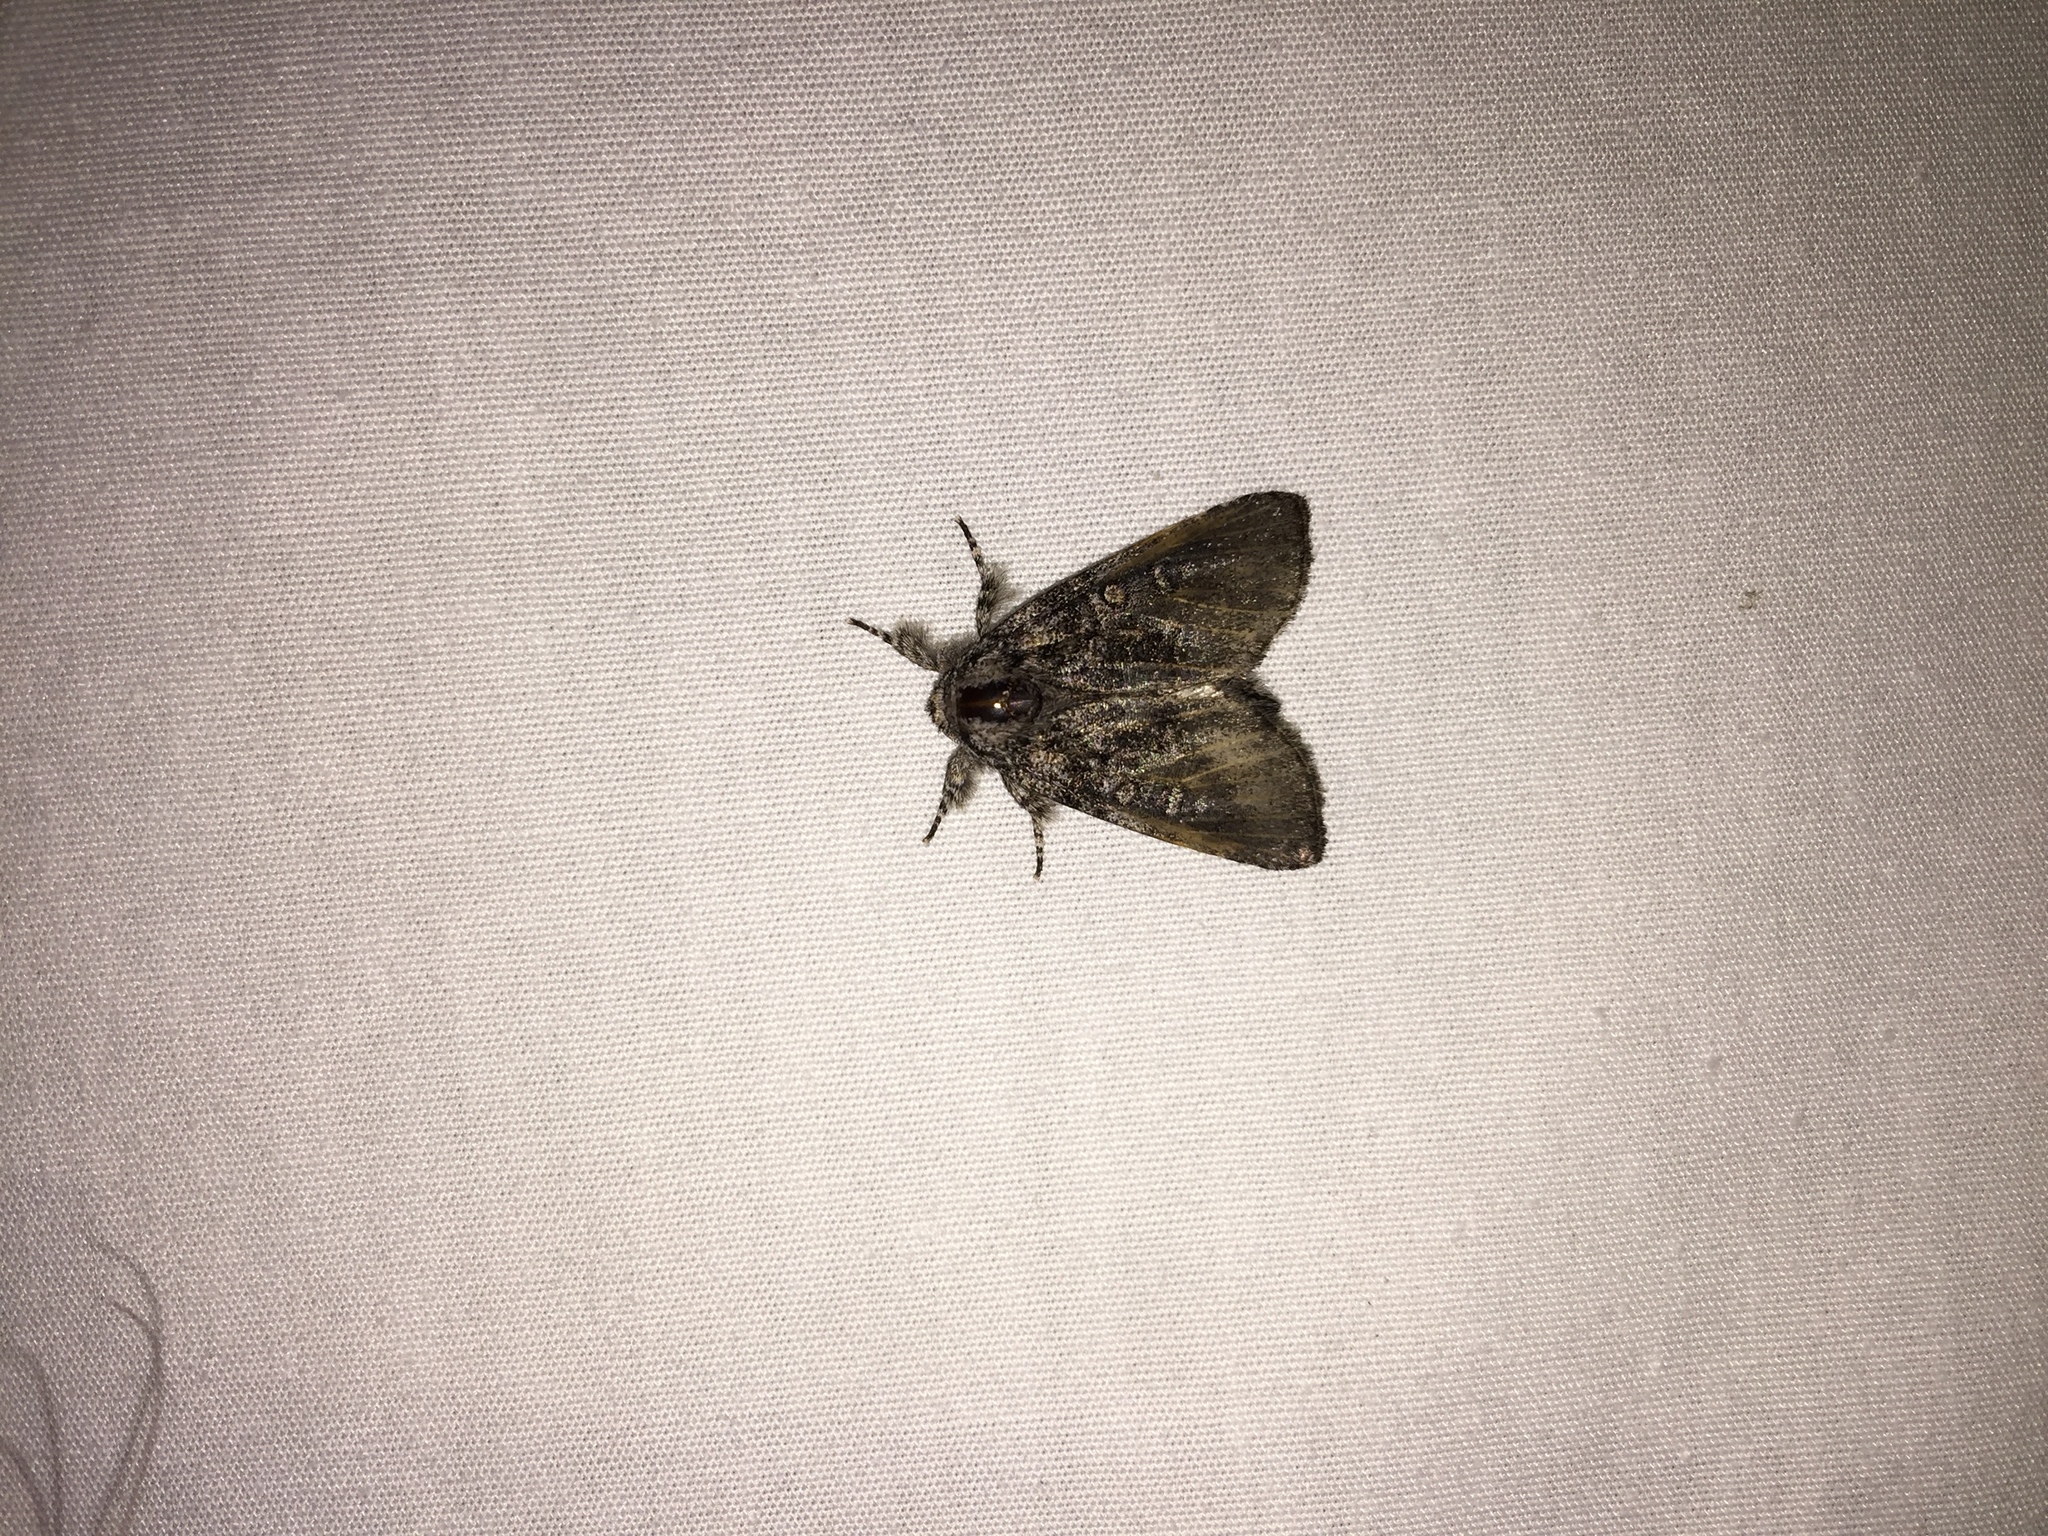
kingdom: Animalia
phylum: Arthropoda
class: Insecta
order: Lepidoptera
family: Noctuidae
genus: Raphia
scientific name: Raphia frater
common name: Brother
